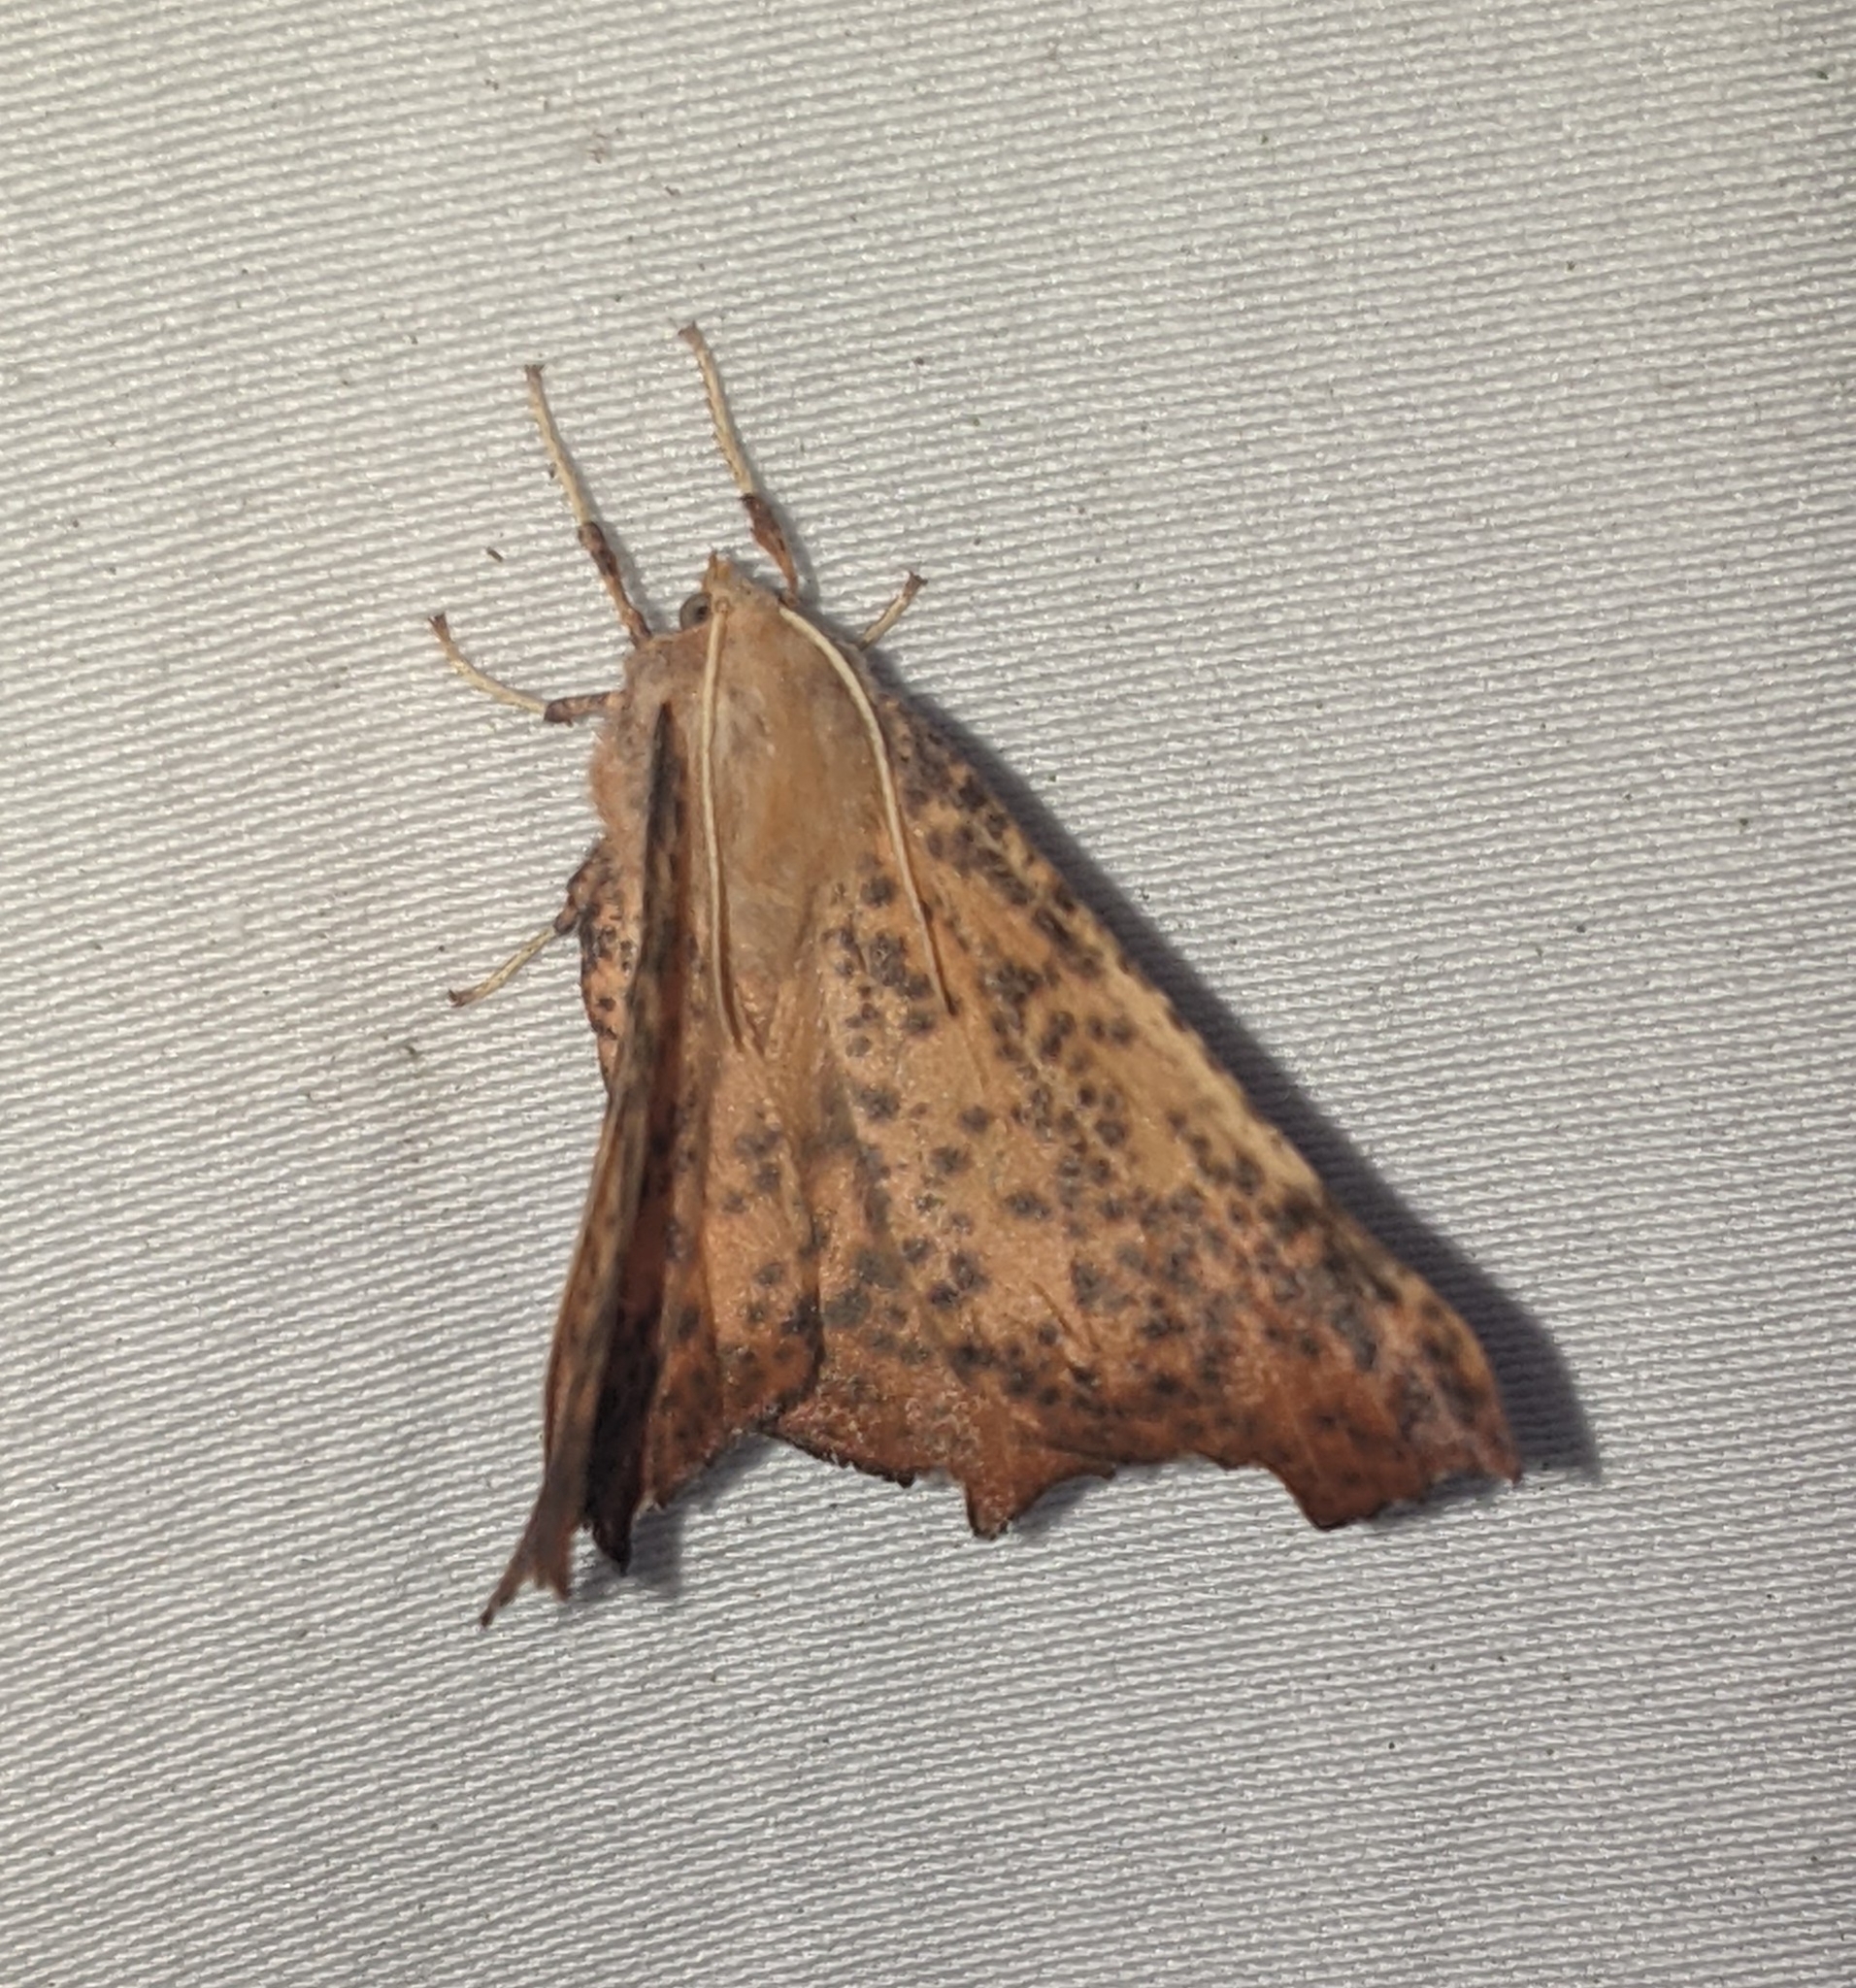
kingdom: Animalia
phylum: Arthropoda
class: Insecta
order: Lepidoptera
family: Geometridae
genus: Ennomos
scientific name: Ennomos magnaria
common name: Maple spanworm
